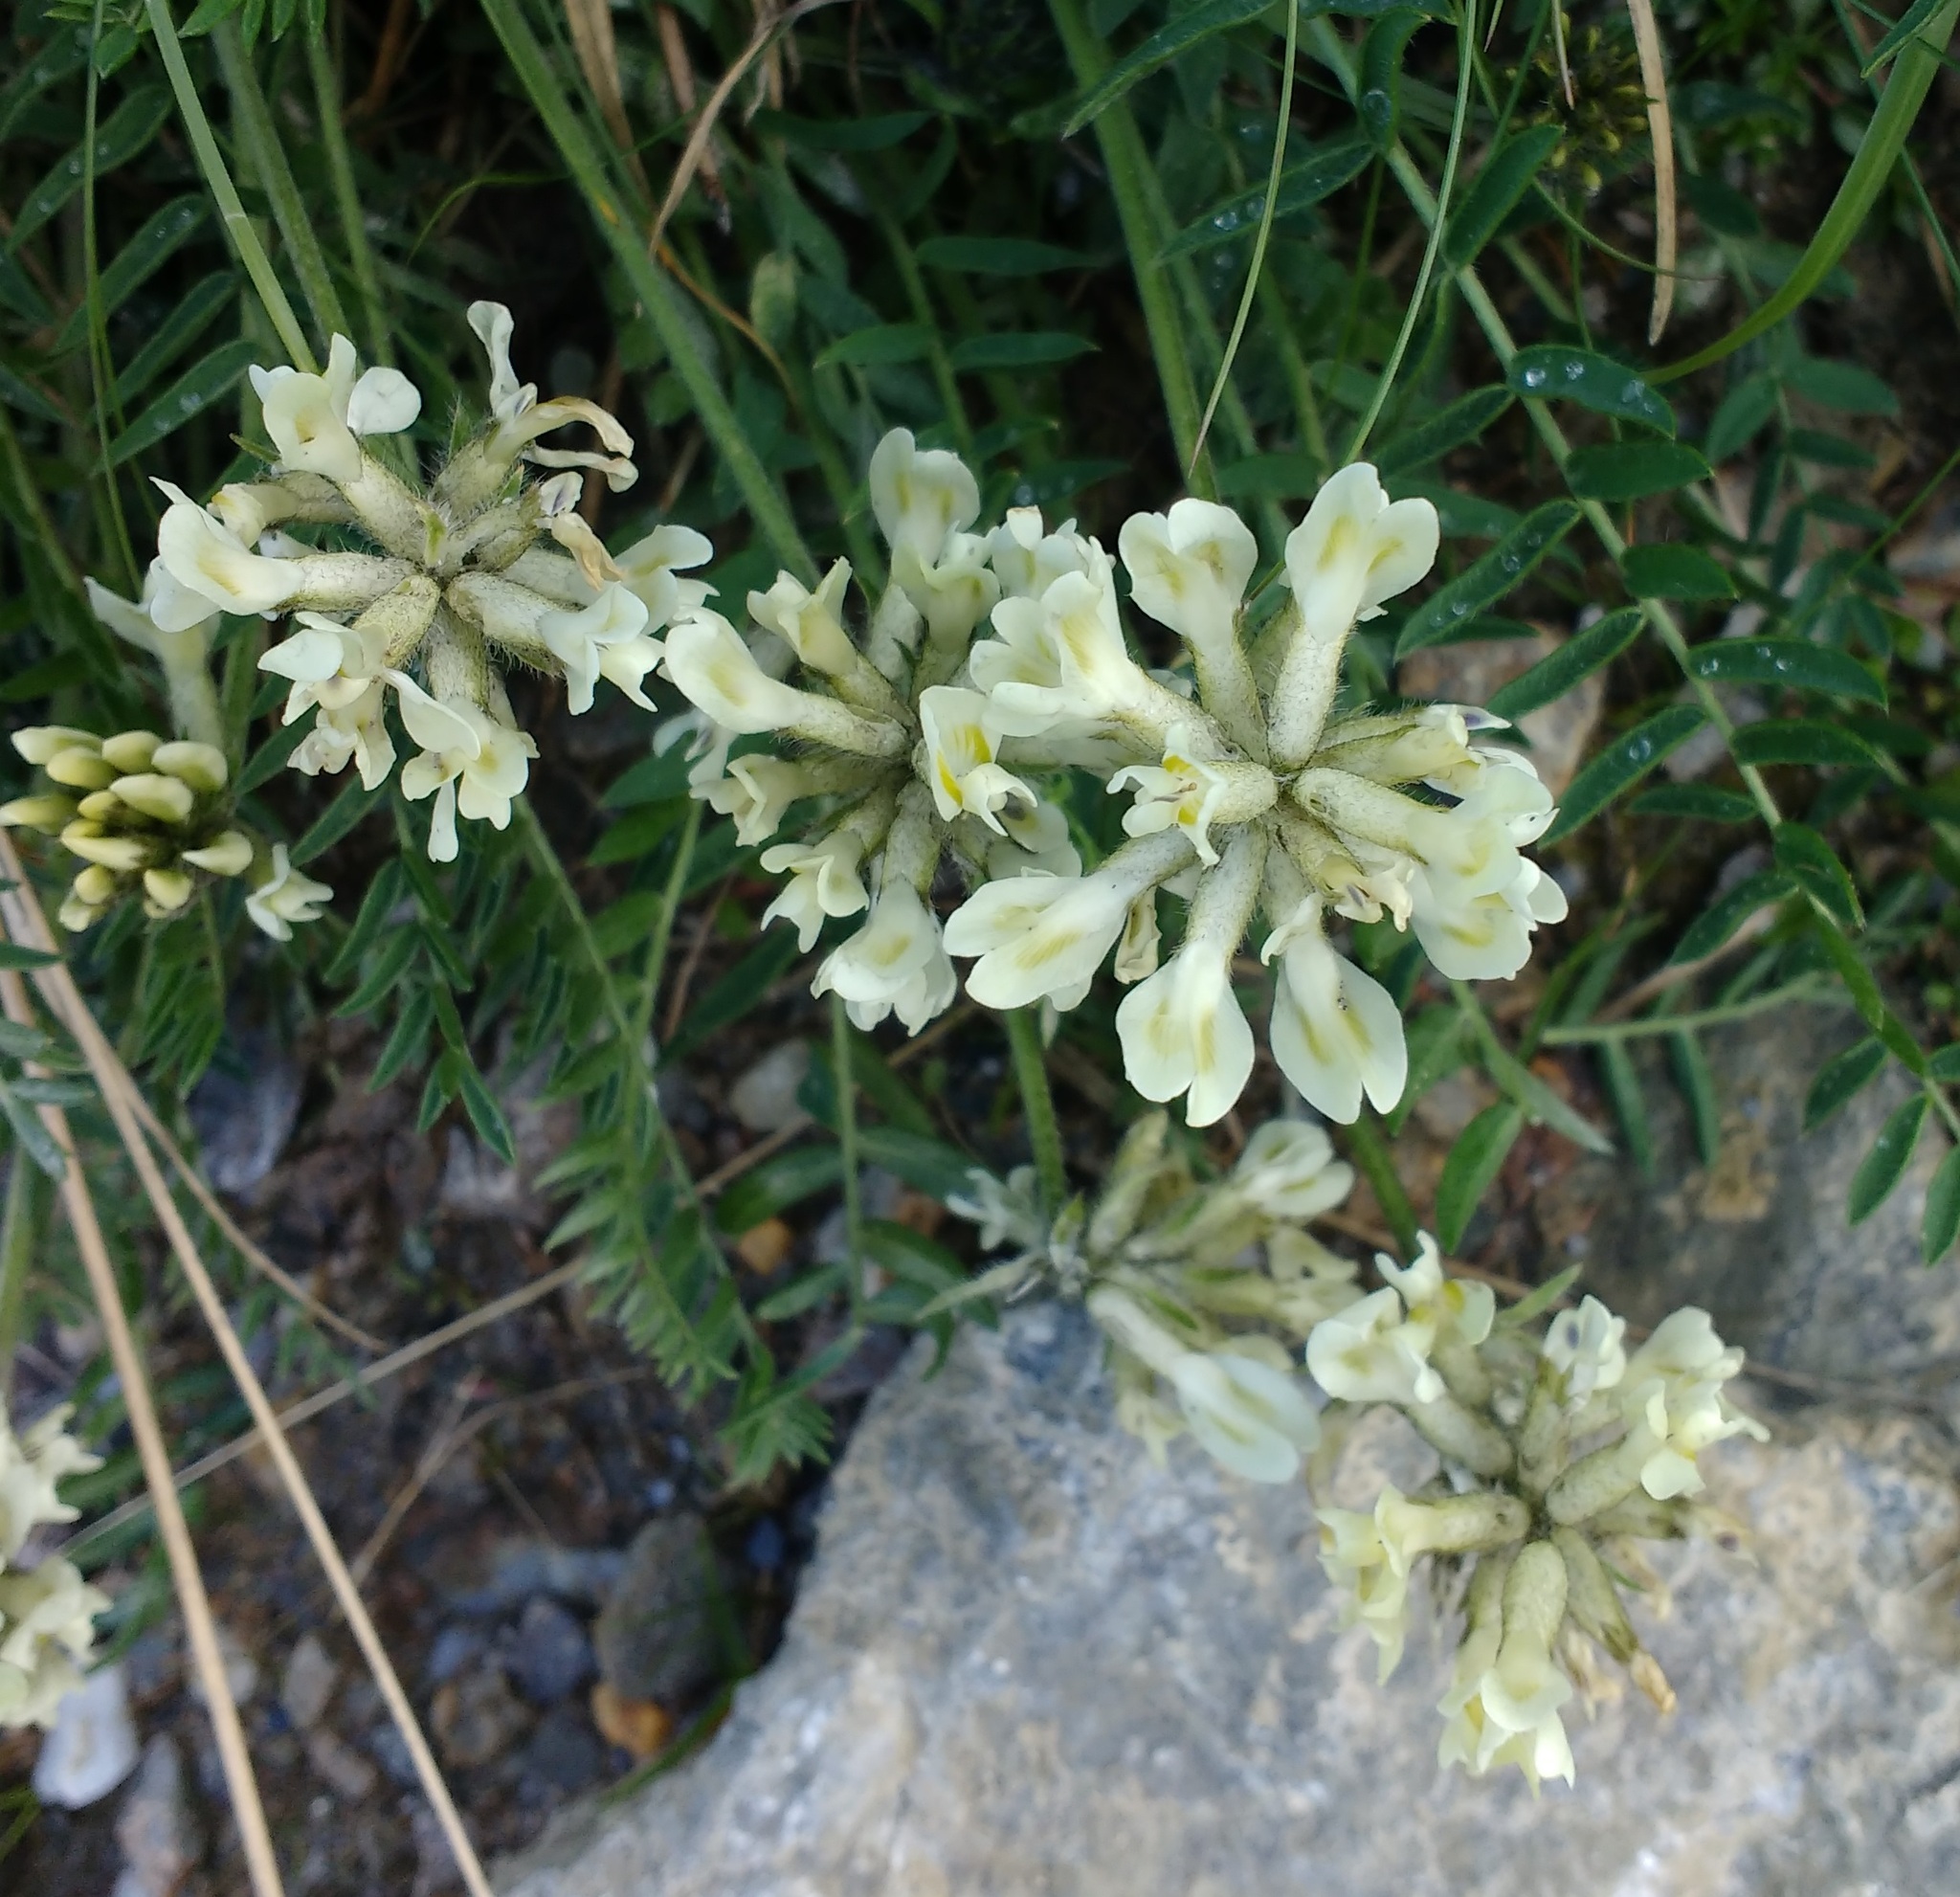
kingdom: Plantae
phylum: Tracheophyta
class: Magnoliopsida
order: Fabales
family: Fabaceae
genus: Oxytropis
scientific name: Oxytropis campestris
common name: Field locoweed
